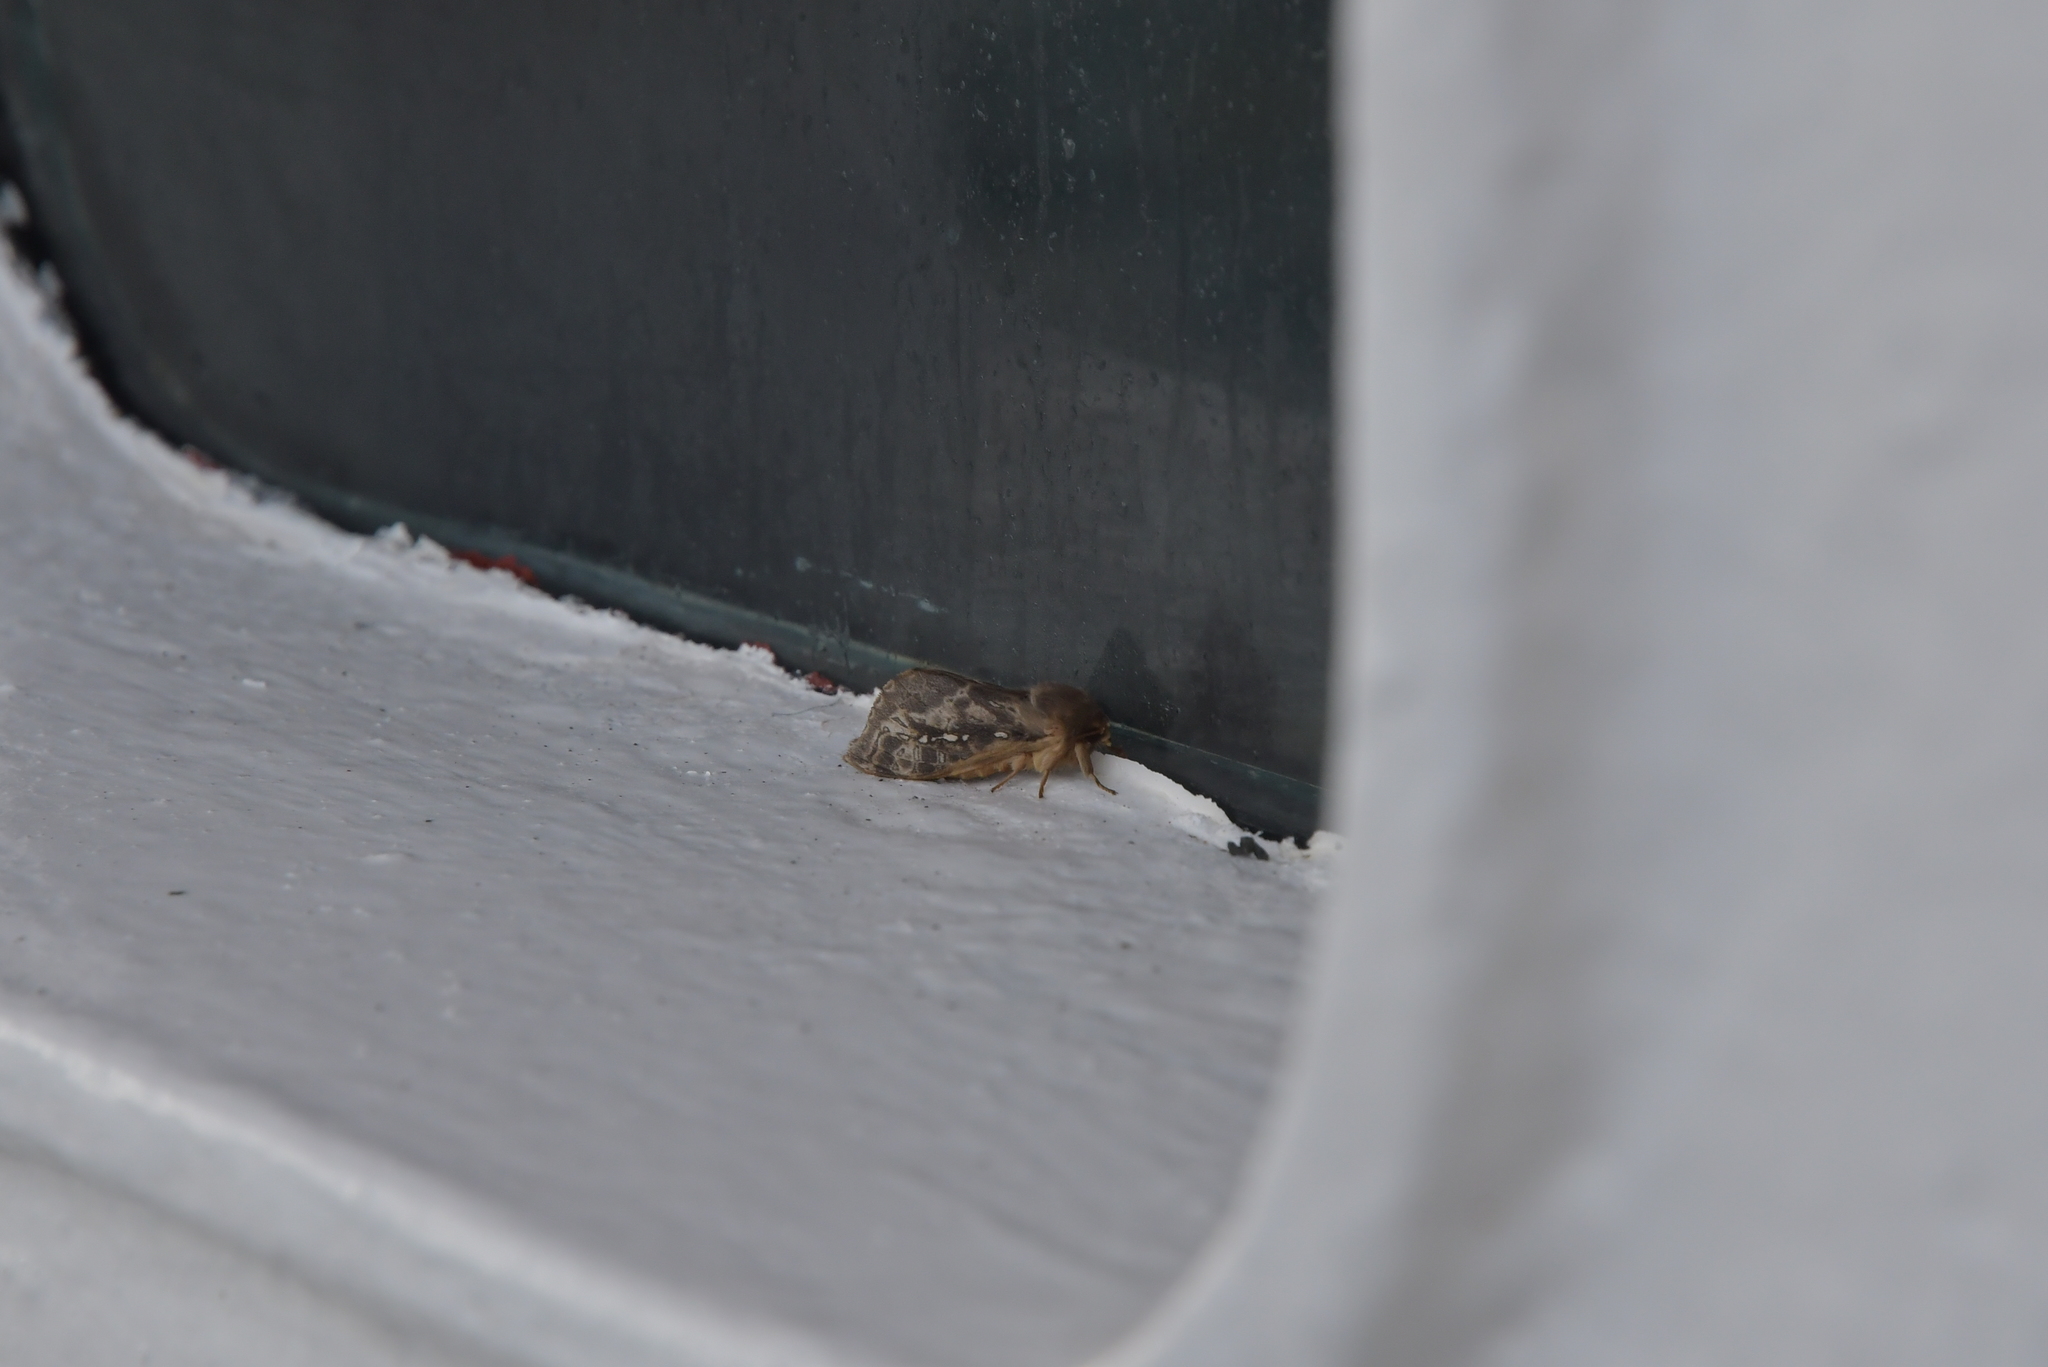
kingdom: Animalia
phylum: Arthropoda
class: Insecta
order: Lepidoptera
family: Hepialidae
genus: Wiseana
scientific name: Wiseana cervinata
